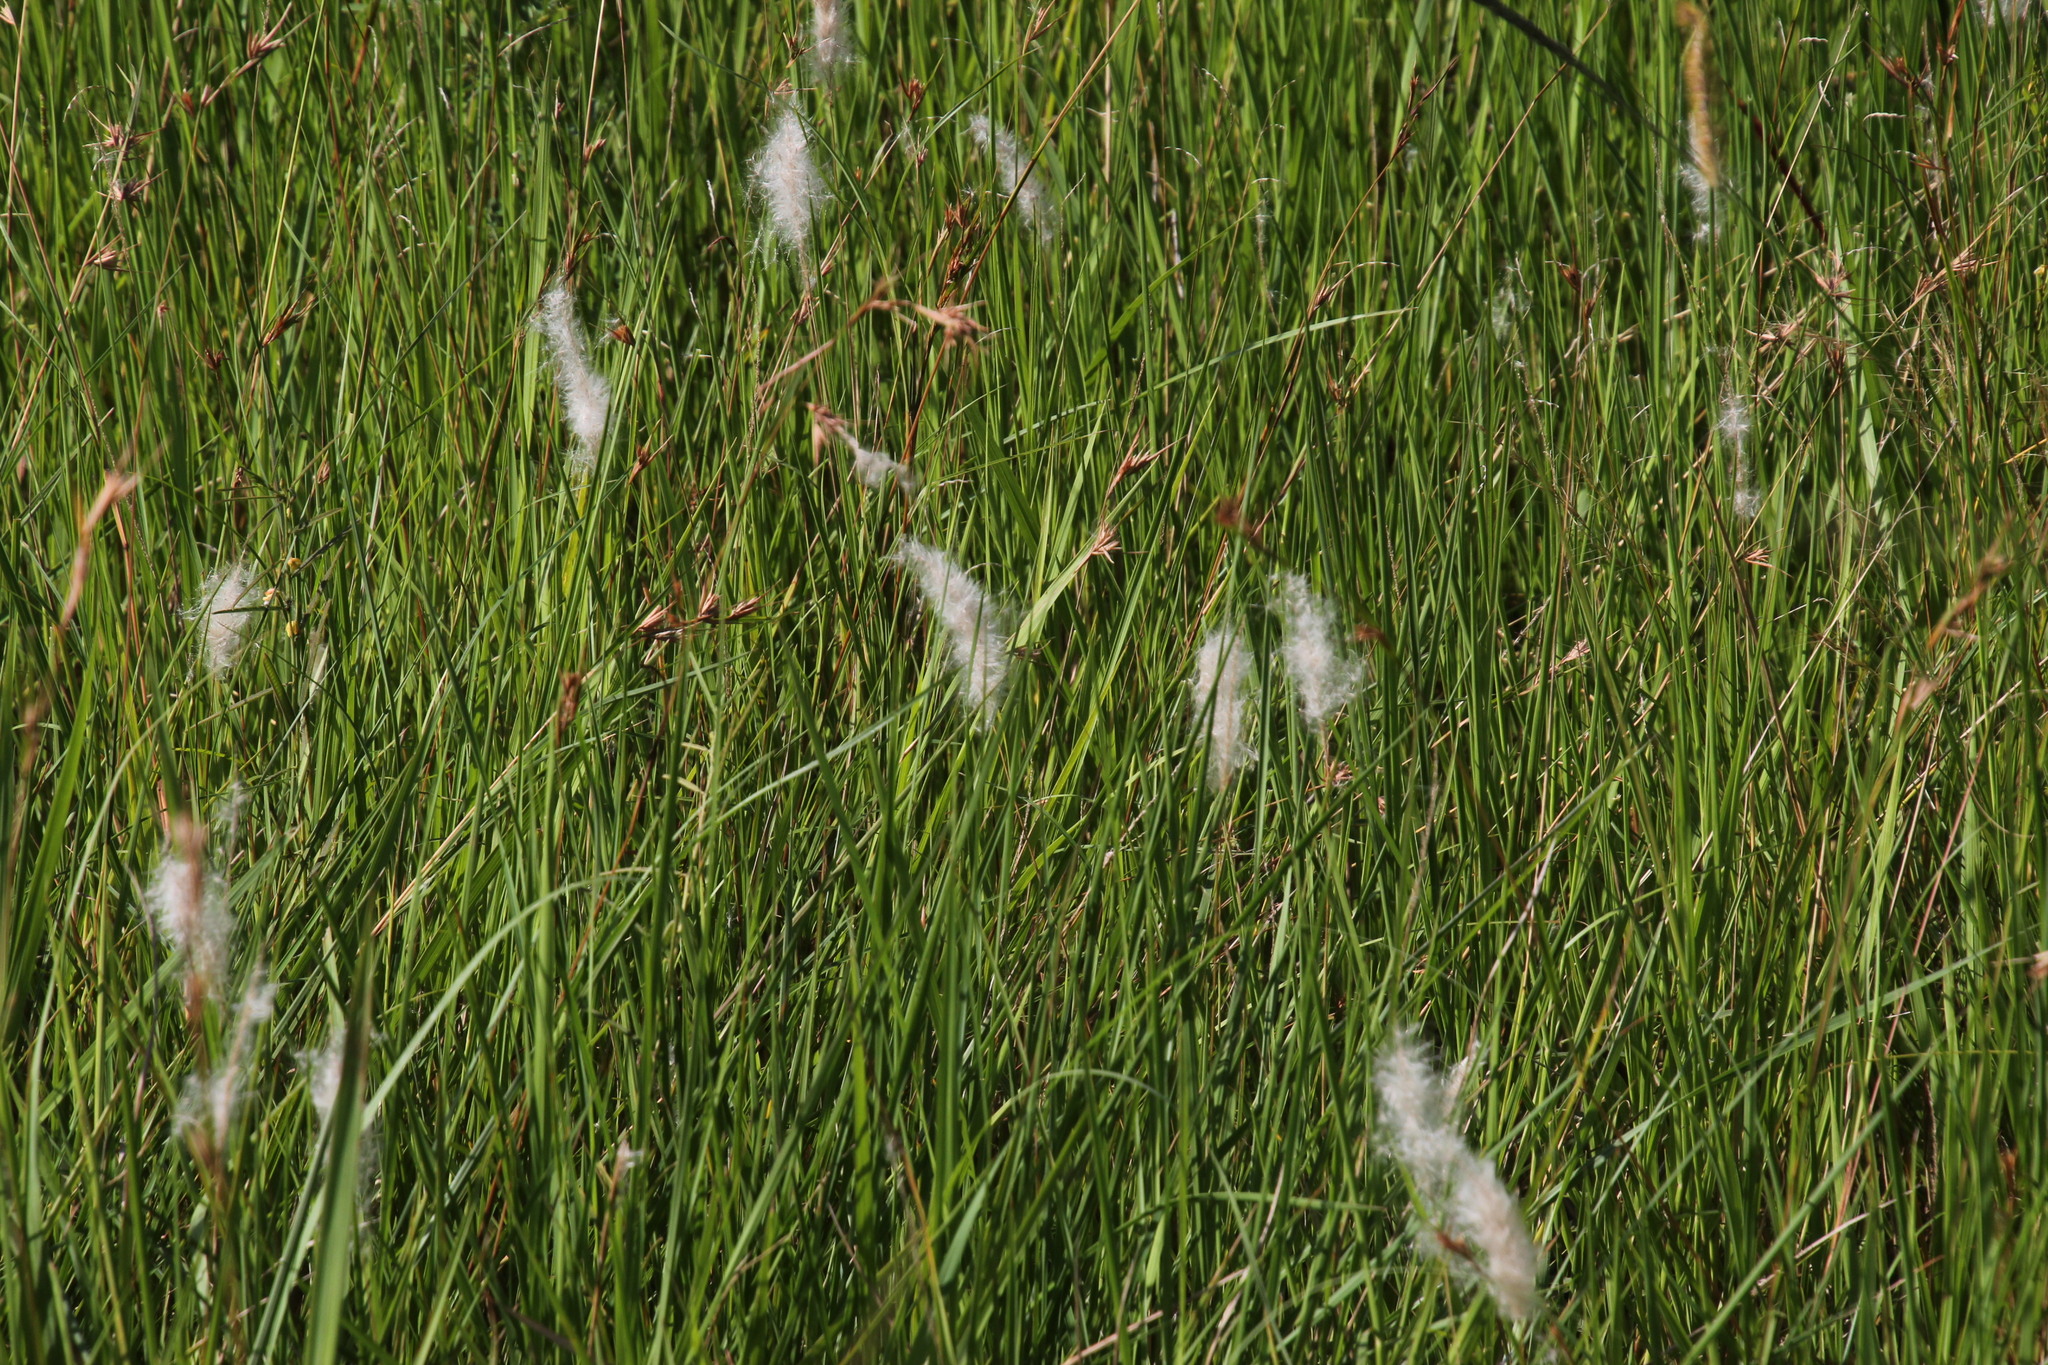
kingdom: Plantae
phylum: Tracheophyta
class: Liliopsida
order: Poales
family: Poaceae
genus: Imperata
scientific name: Imperata cylindrica
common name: Cogongrass
